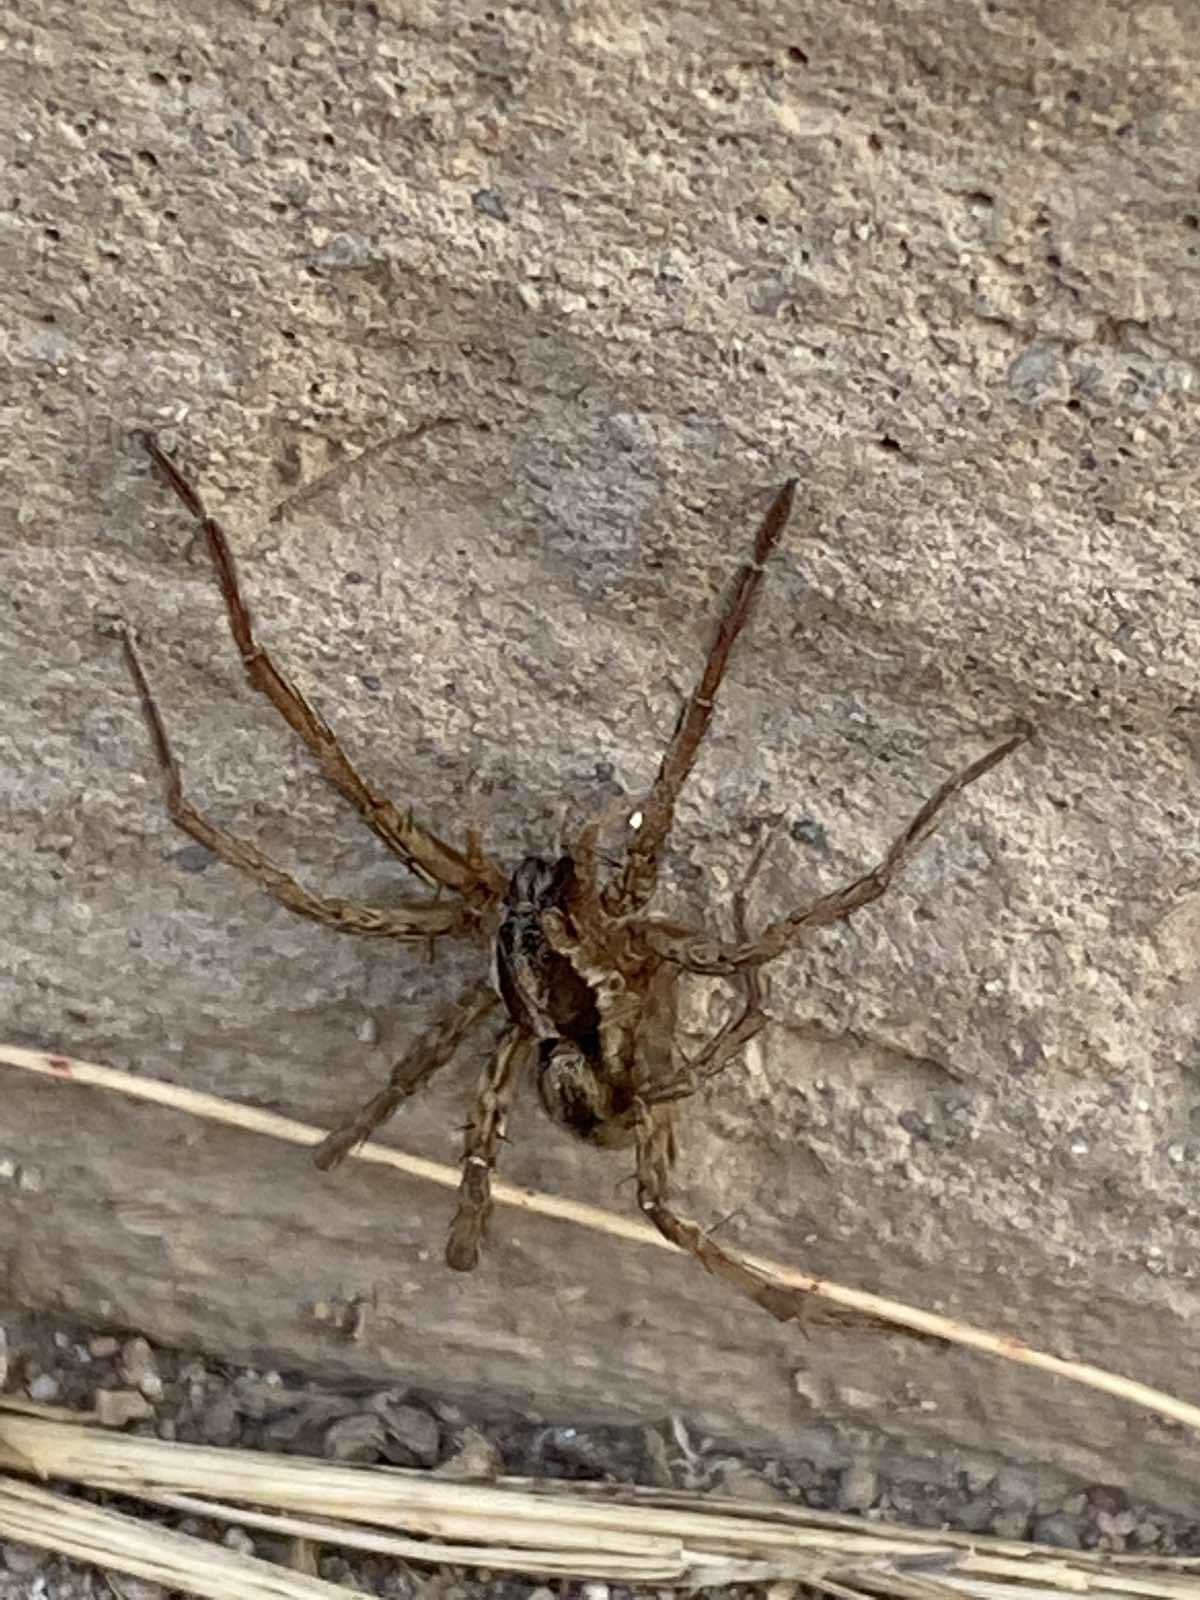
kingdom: Animalia
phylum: Arthropoda
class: Arachnida
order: Araneae
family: Lycosidae
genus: Hogna
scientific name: Hogna radiata
